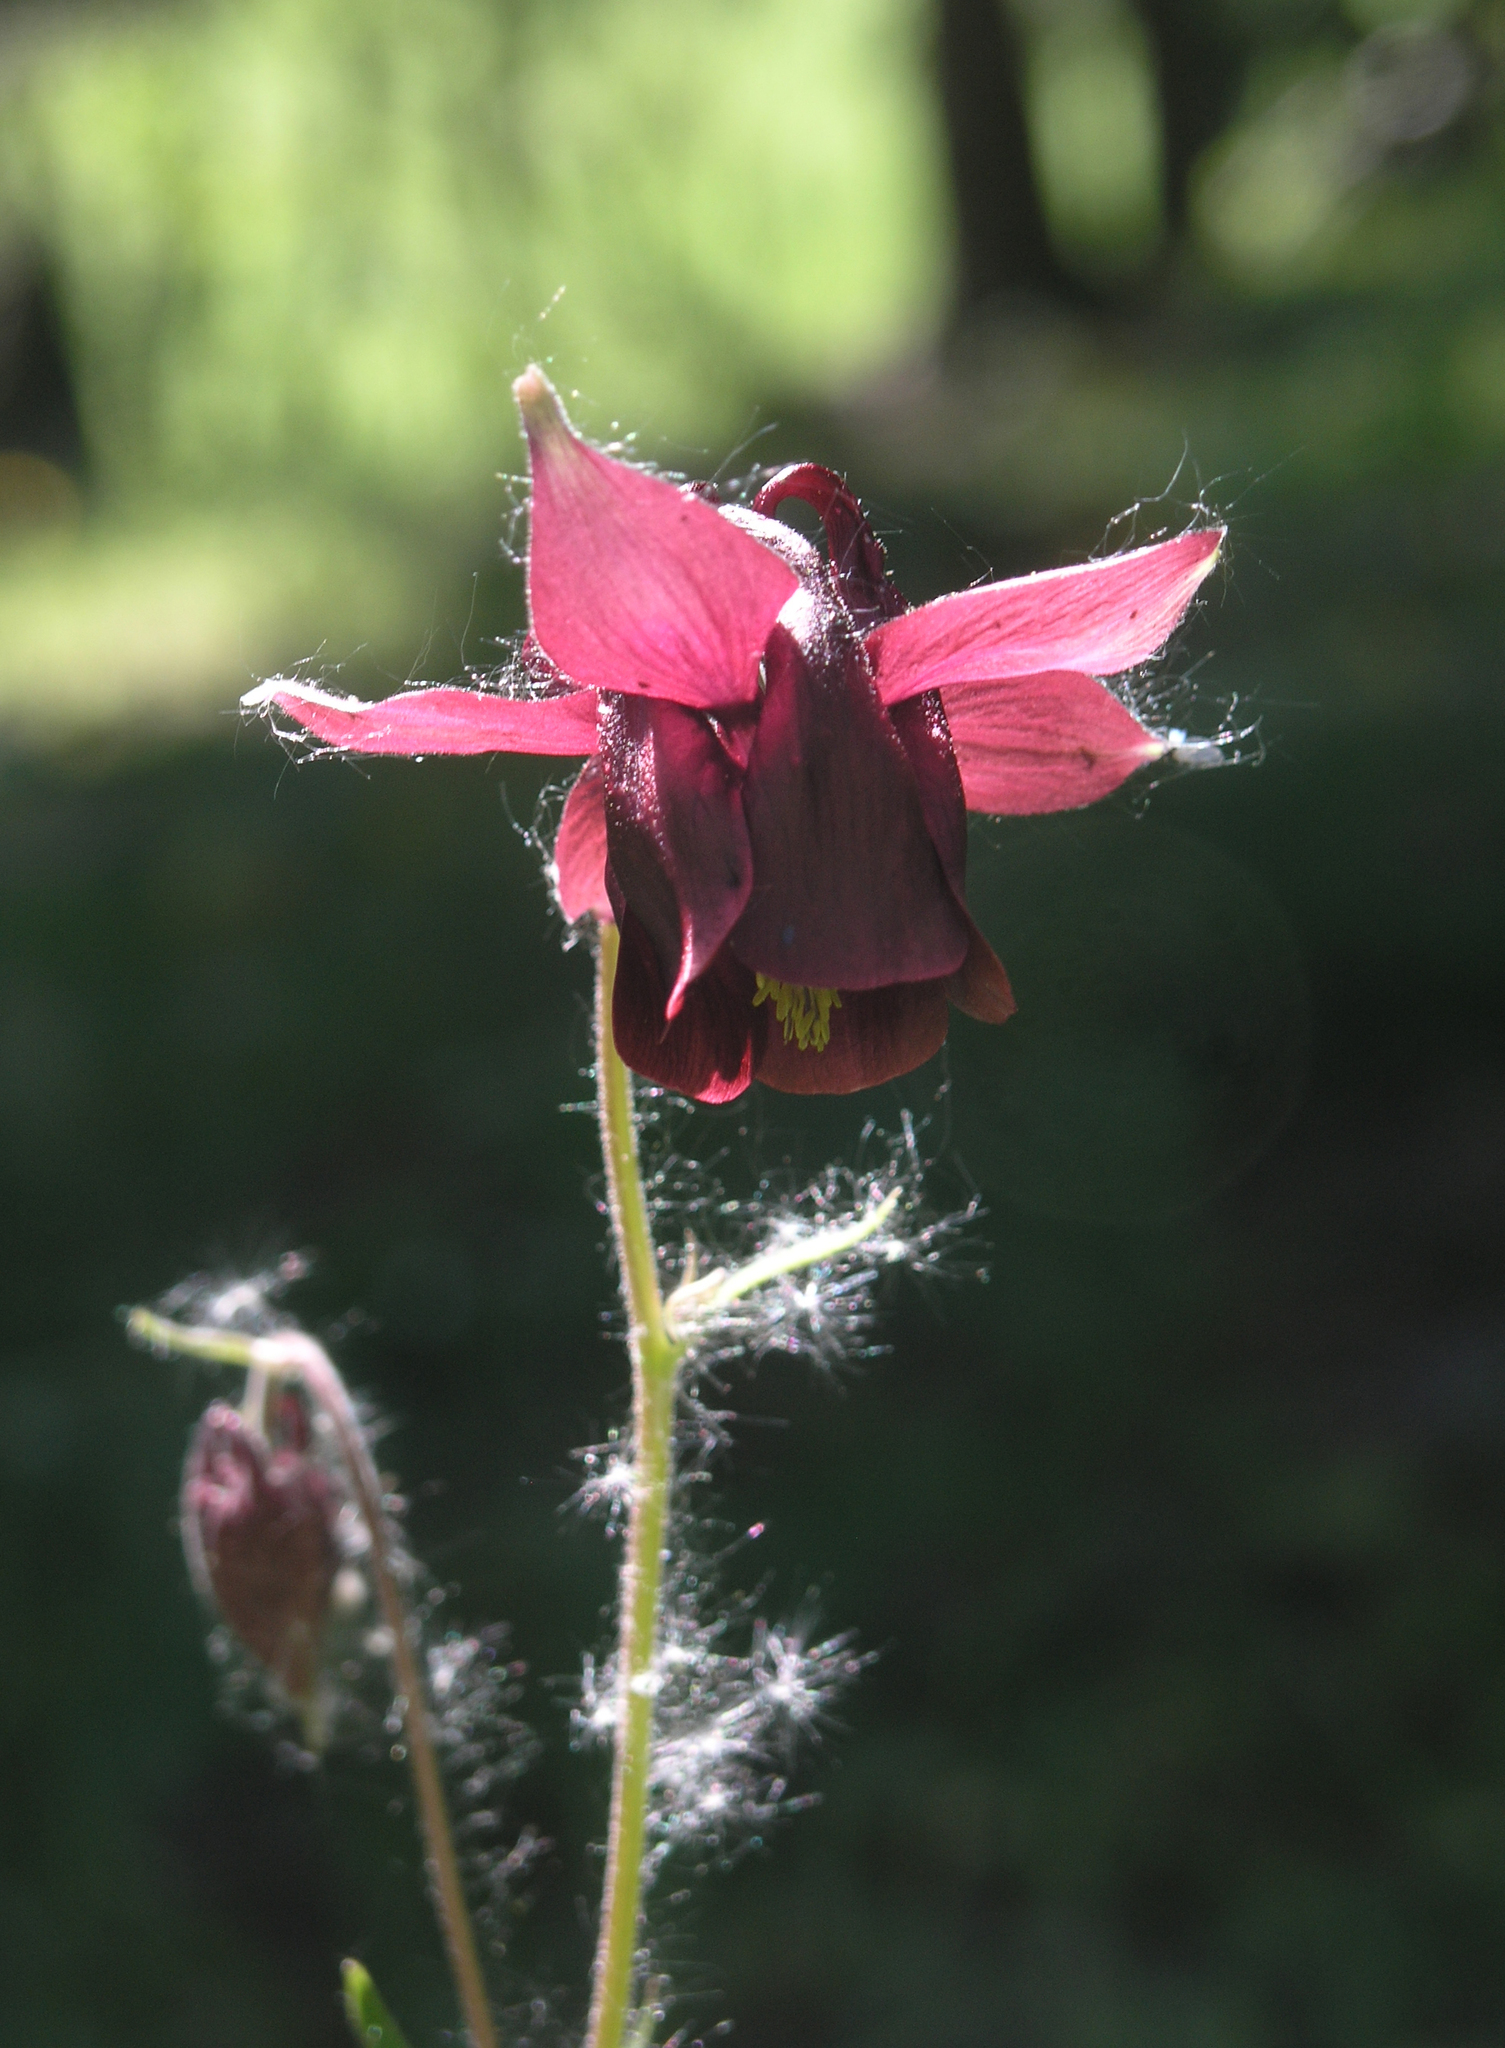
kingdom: Plantae
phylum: Tracheophyta
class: Magnoliopsida
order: Ranunculales
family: Ranunculaceae
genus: Aquilegia
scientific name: Aquilegia atrovinosa
